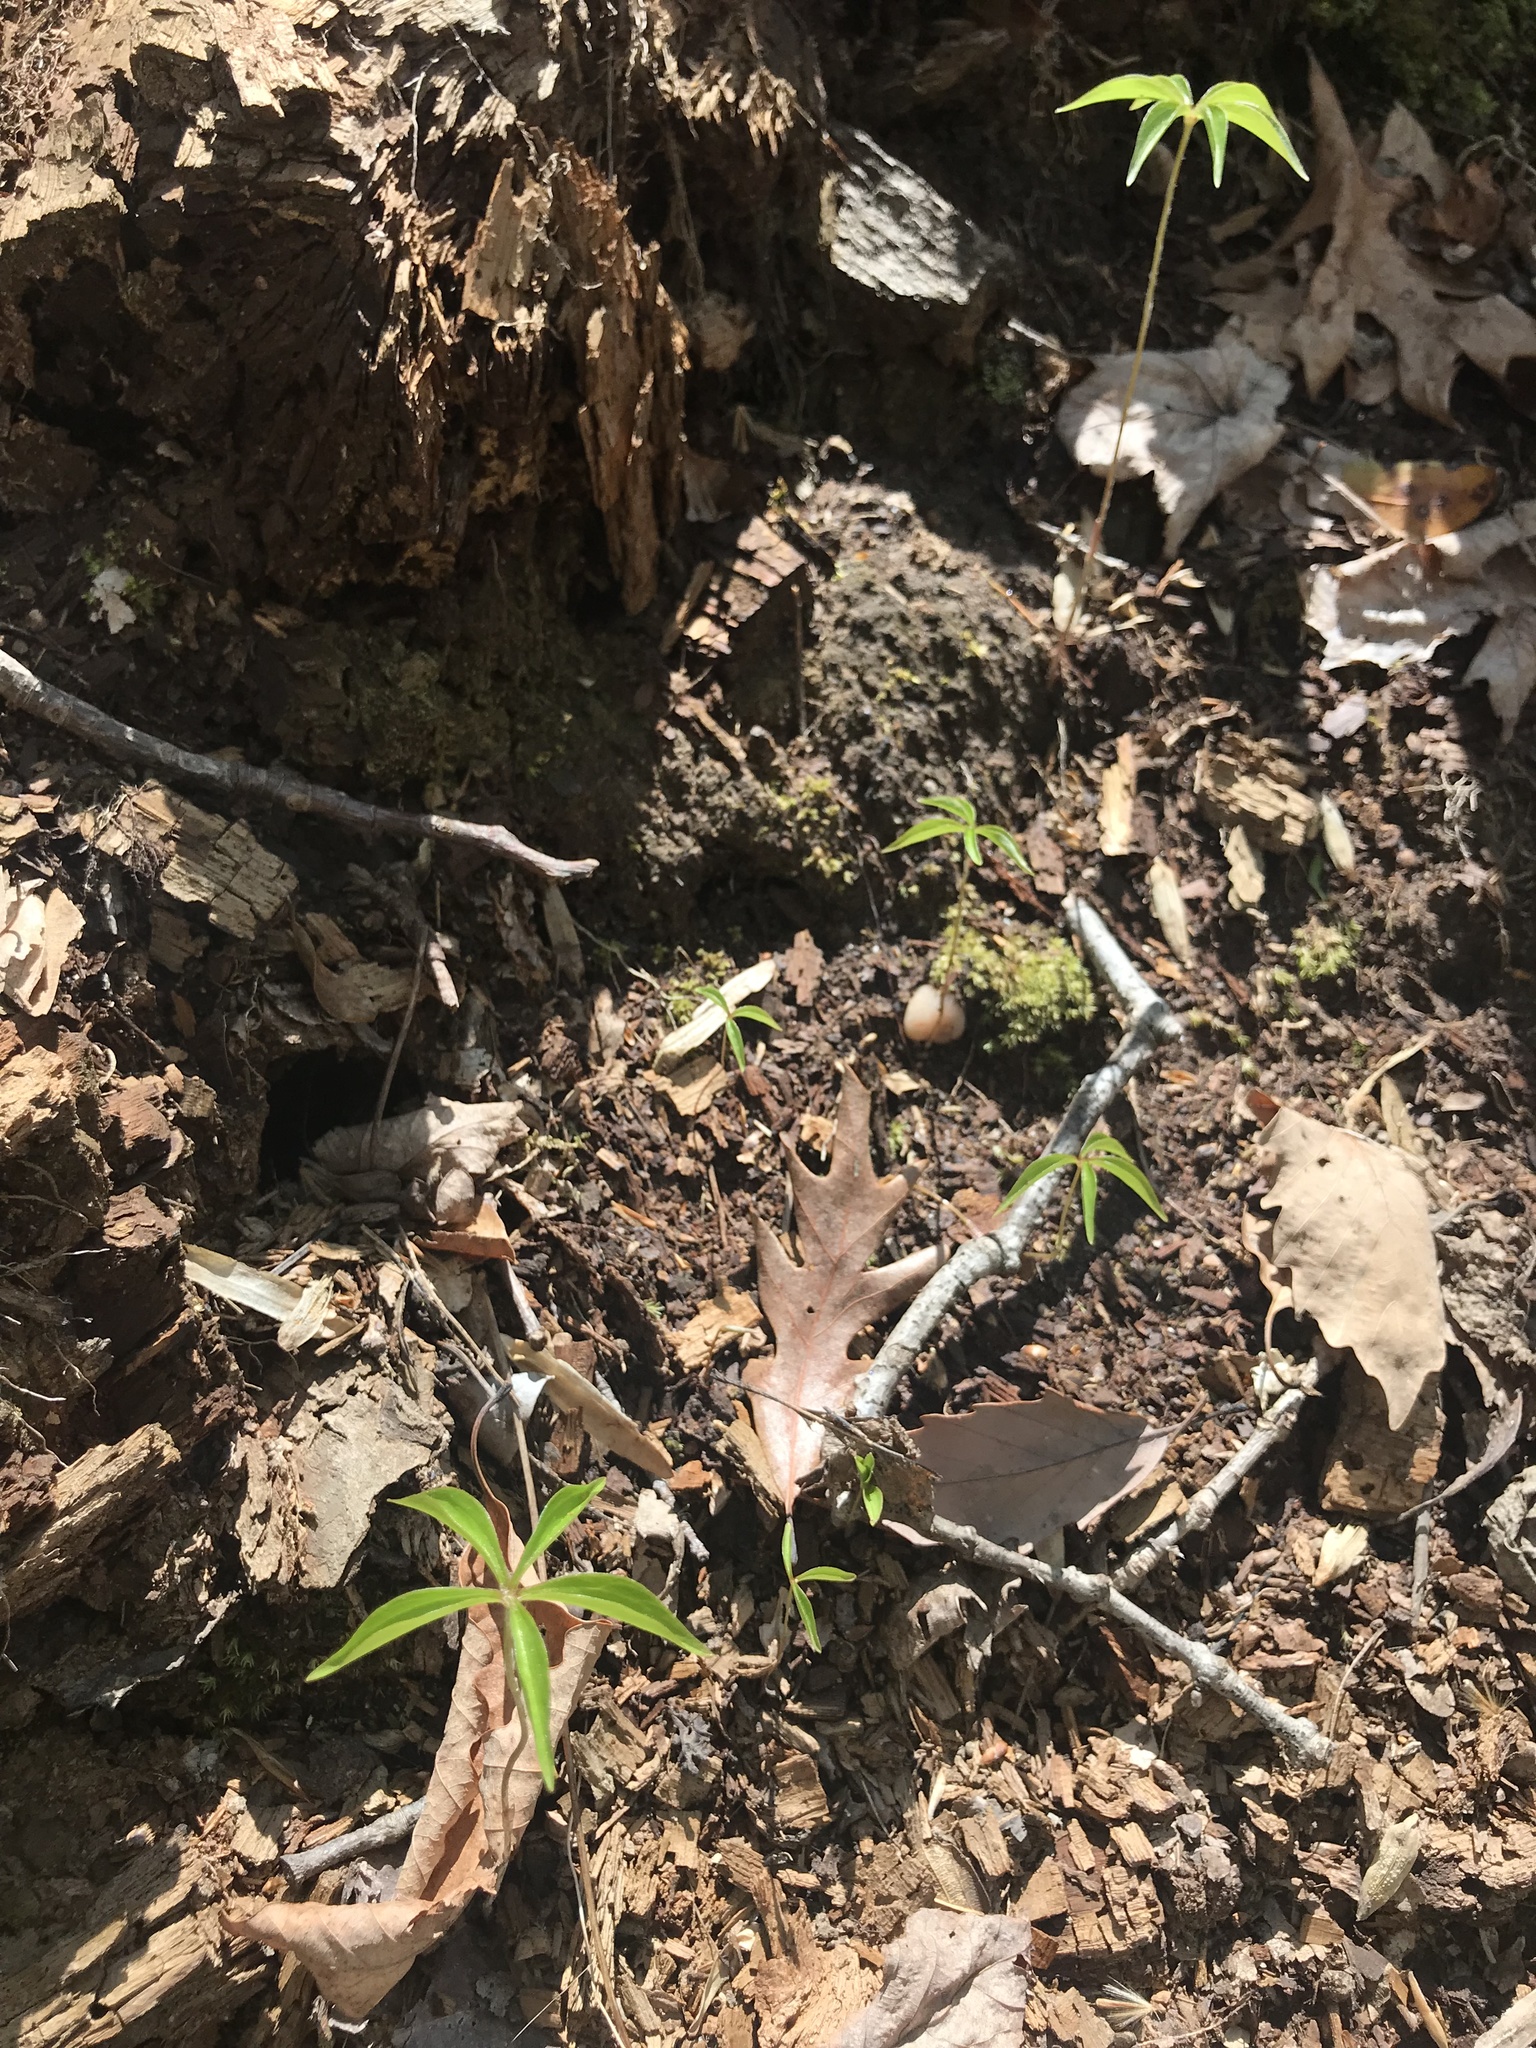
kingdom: Plantae
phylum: Tracheophyta
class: Liliopsida
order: Liliales
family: Liliaceae
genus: Medeola
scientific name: Medeola virginiana
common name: Indian cucumber-root
